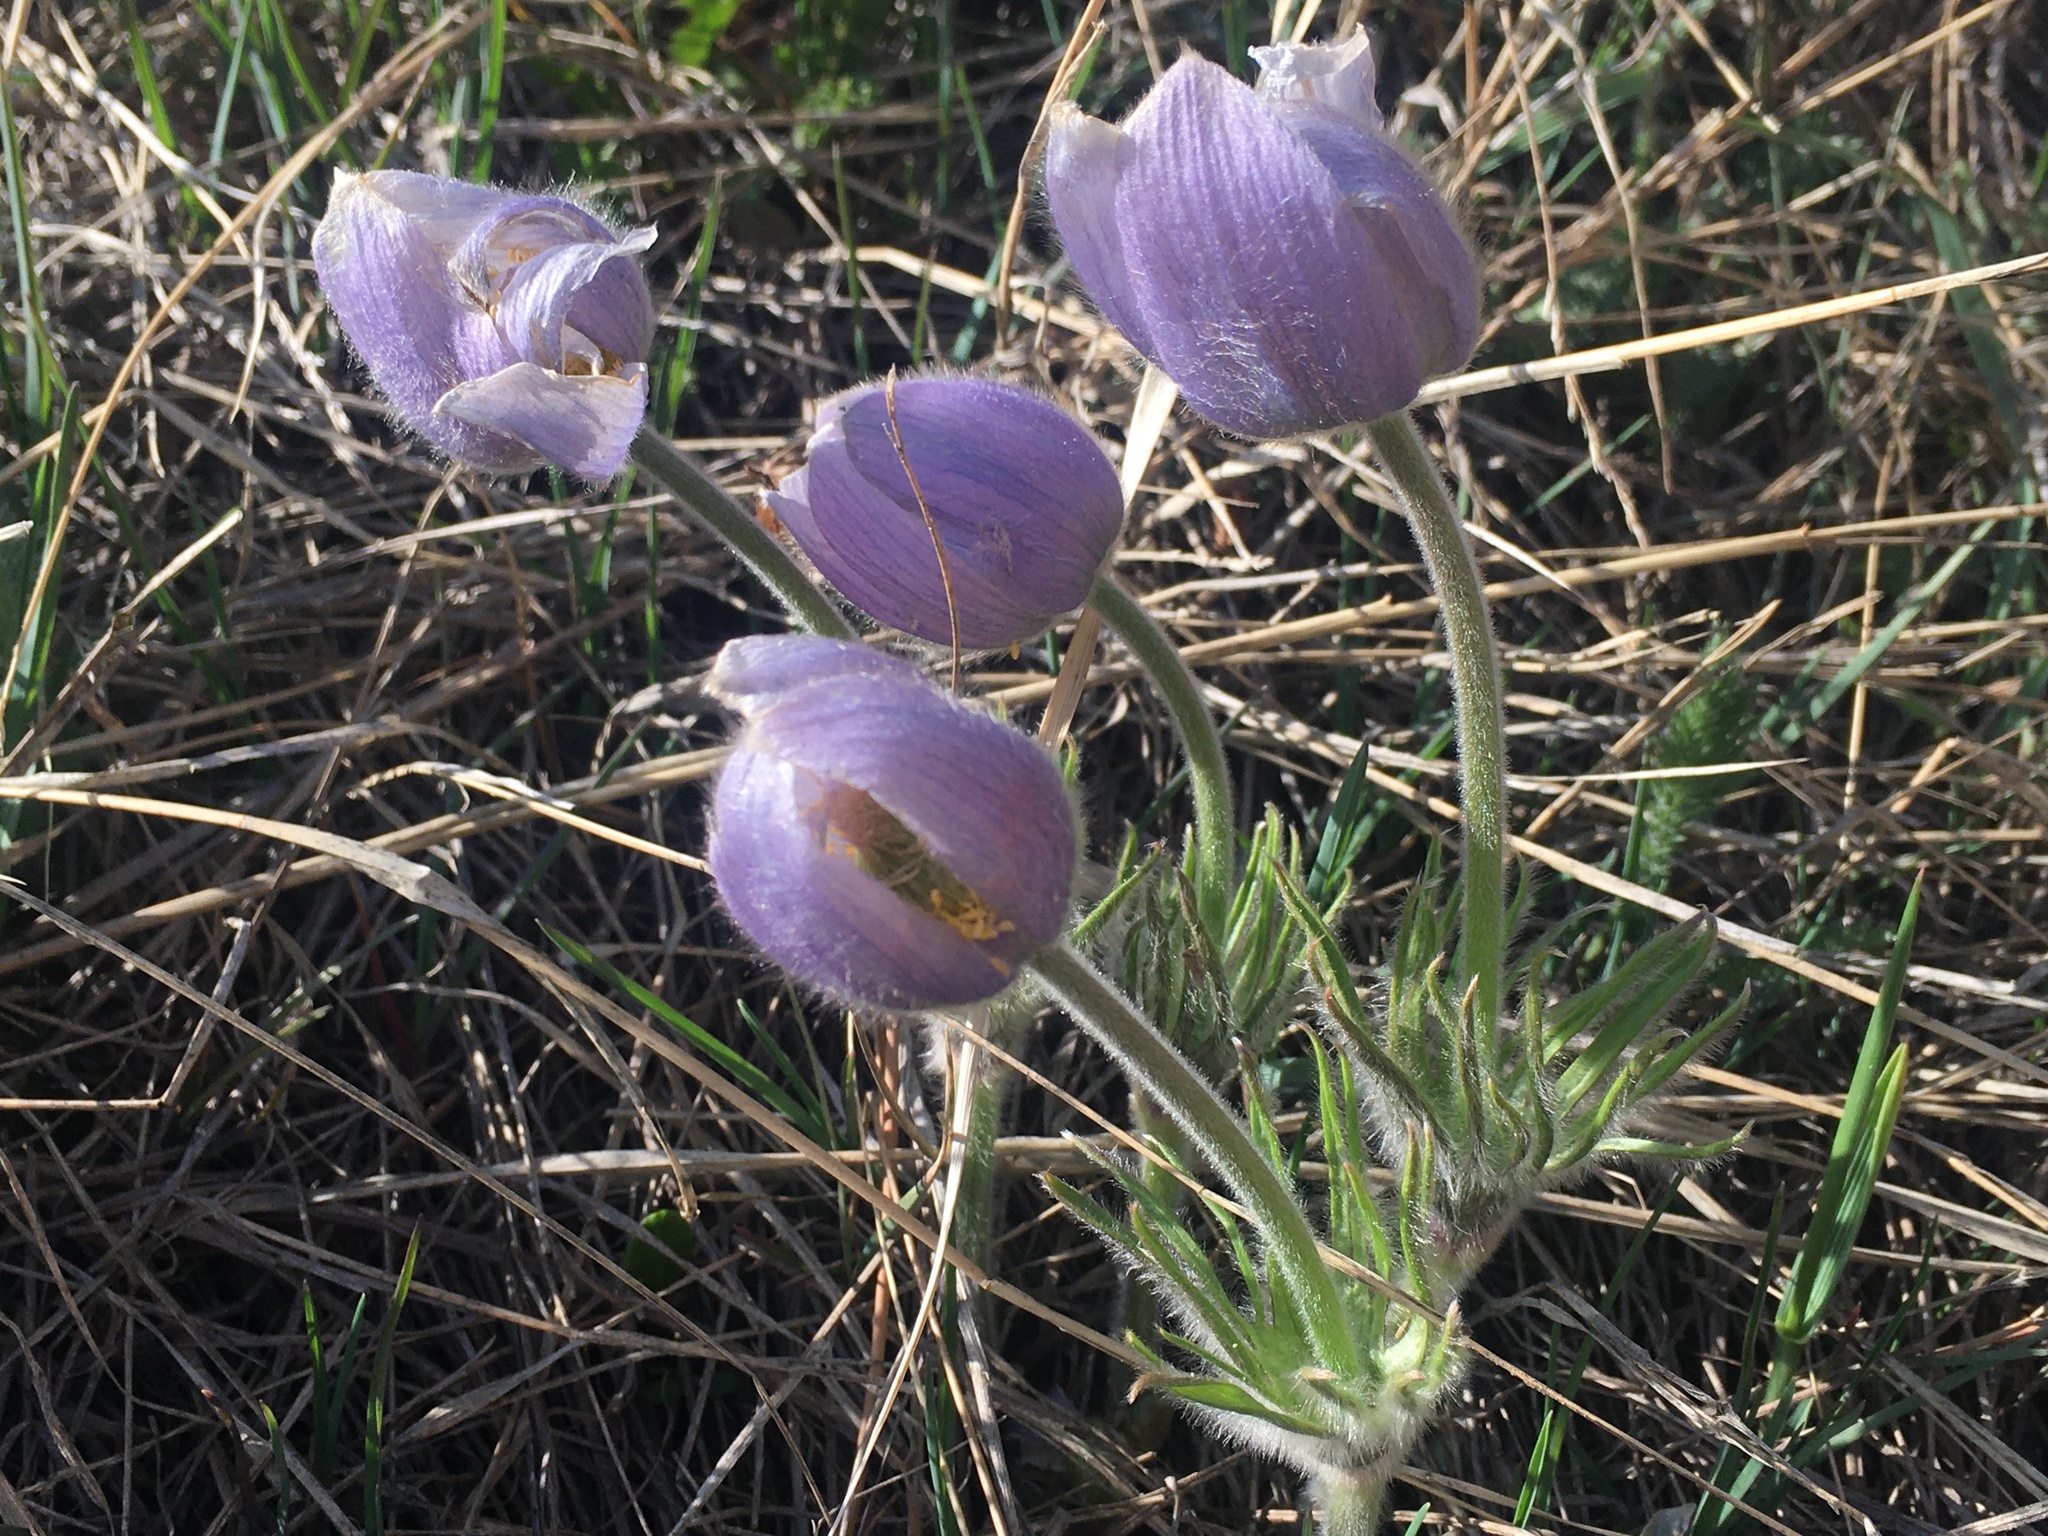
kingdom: Plantae
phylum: Tracheophyta
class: Magnoliopsida
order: Ranunculales
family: Ranunculaceae
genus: Pulsatilla
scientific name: Pulsatilla nuttalliana
